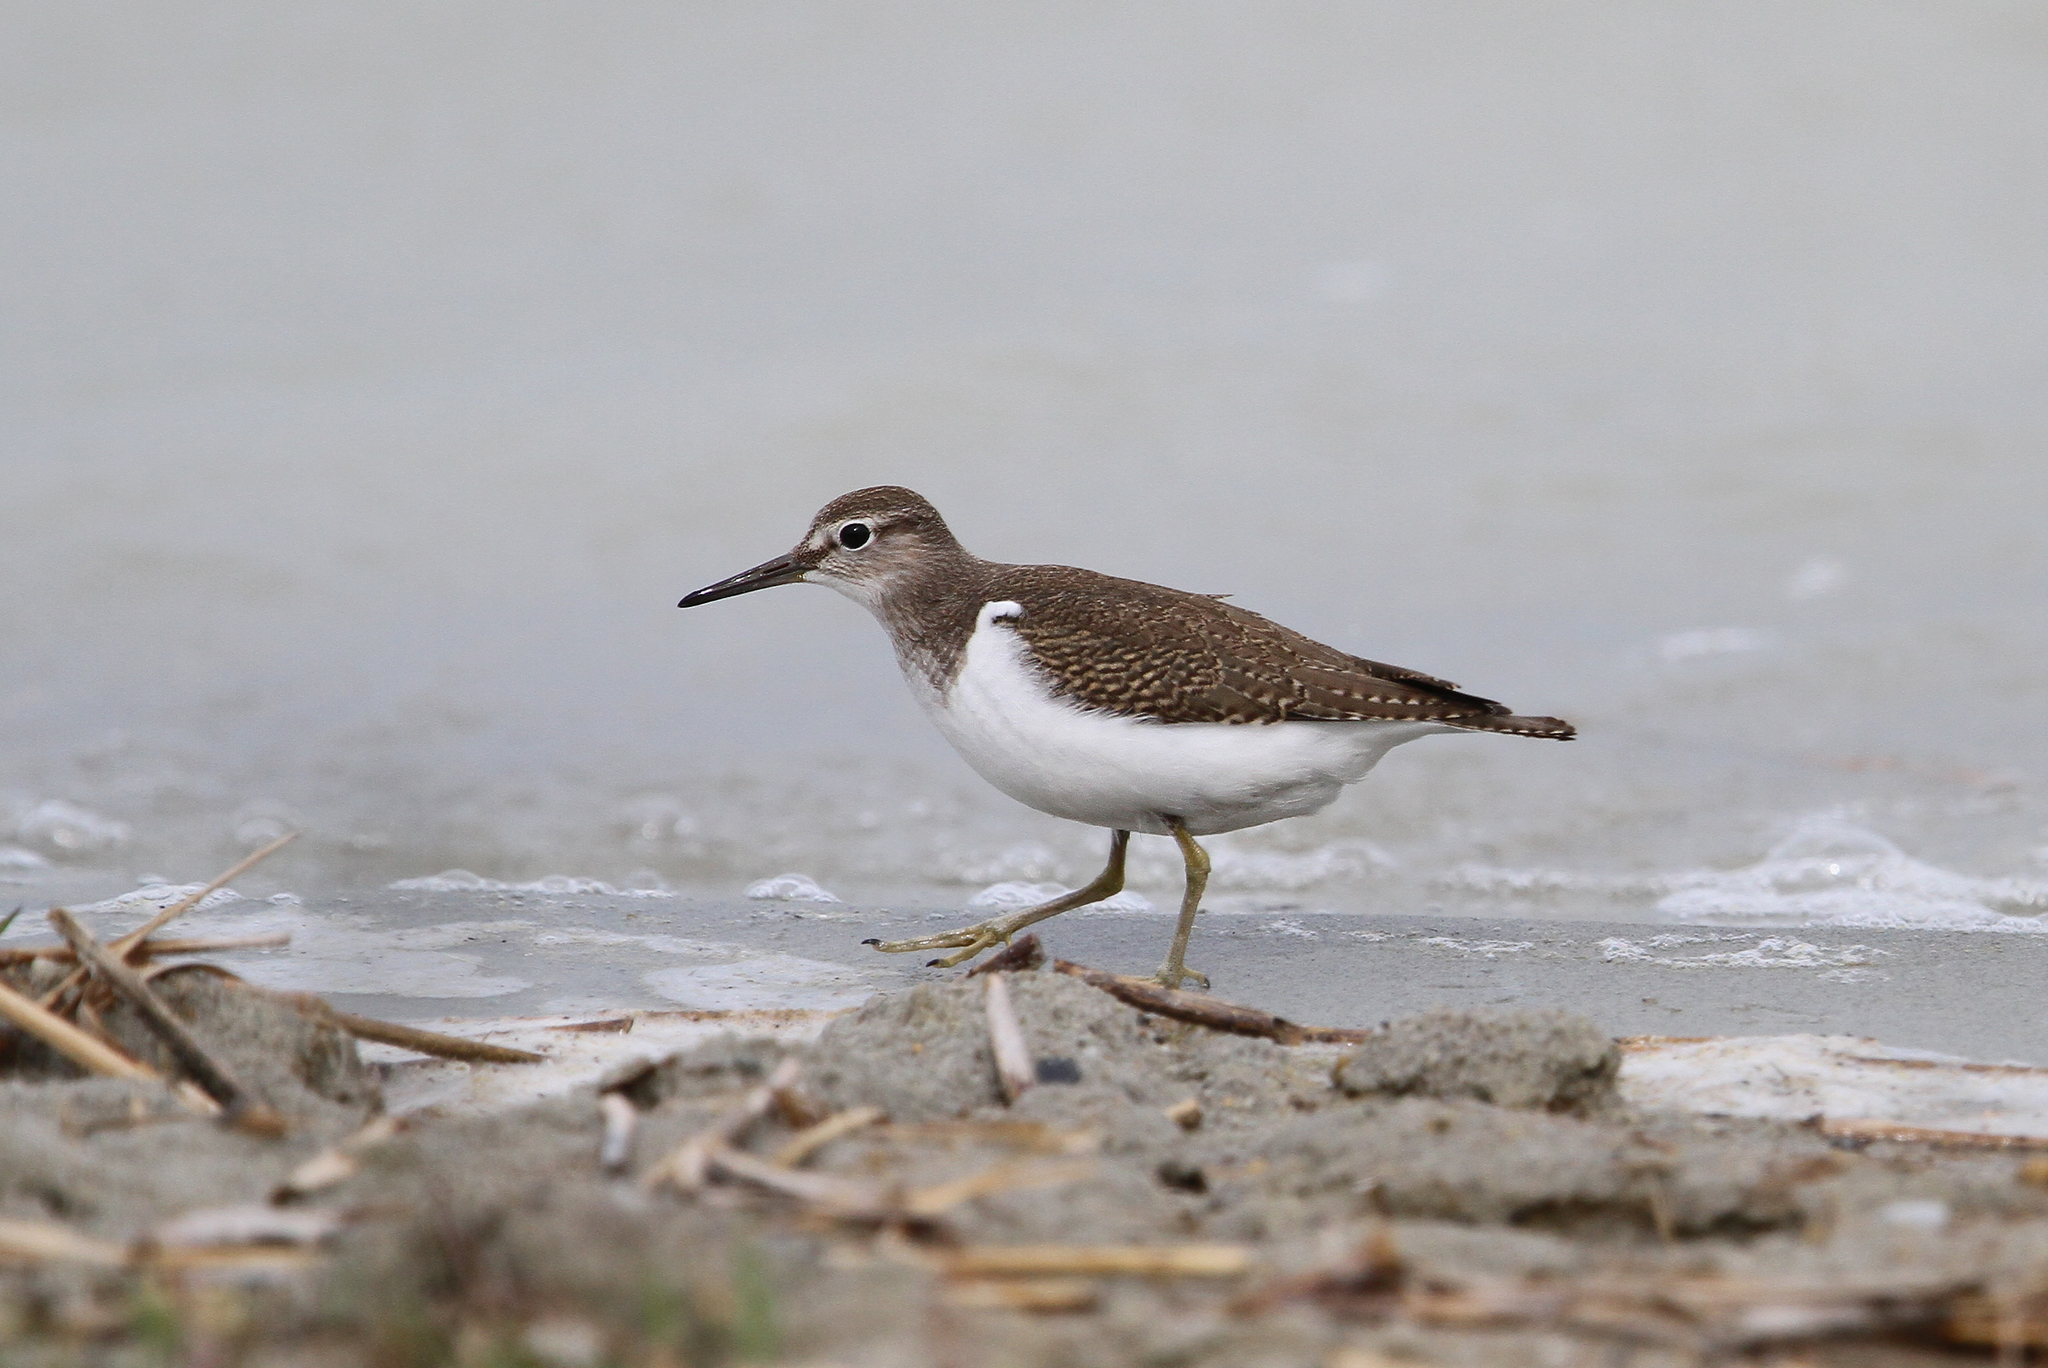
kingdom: Animalia
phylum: Chordata
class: Aves
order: Charadriiformes
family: Scolopacidae
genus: Actitis
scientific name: Actitis hypoleucos
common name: Common sandpiper
